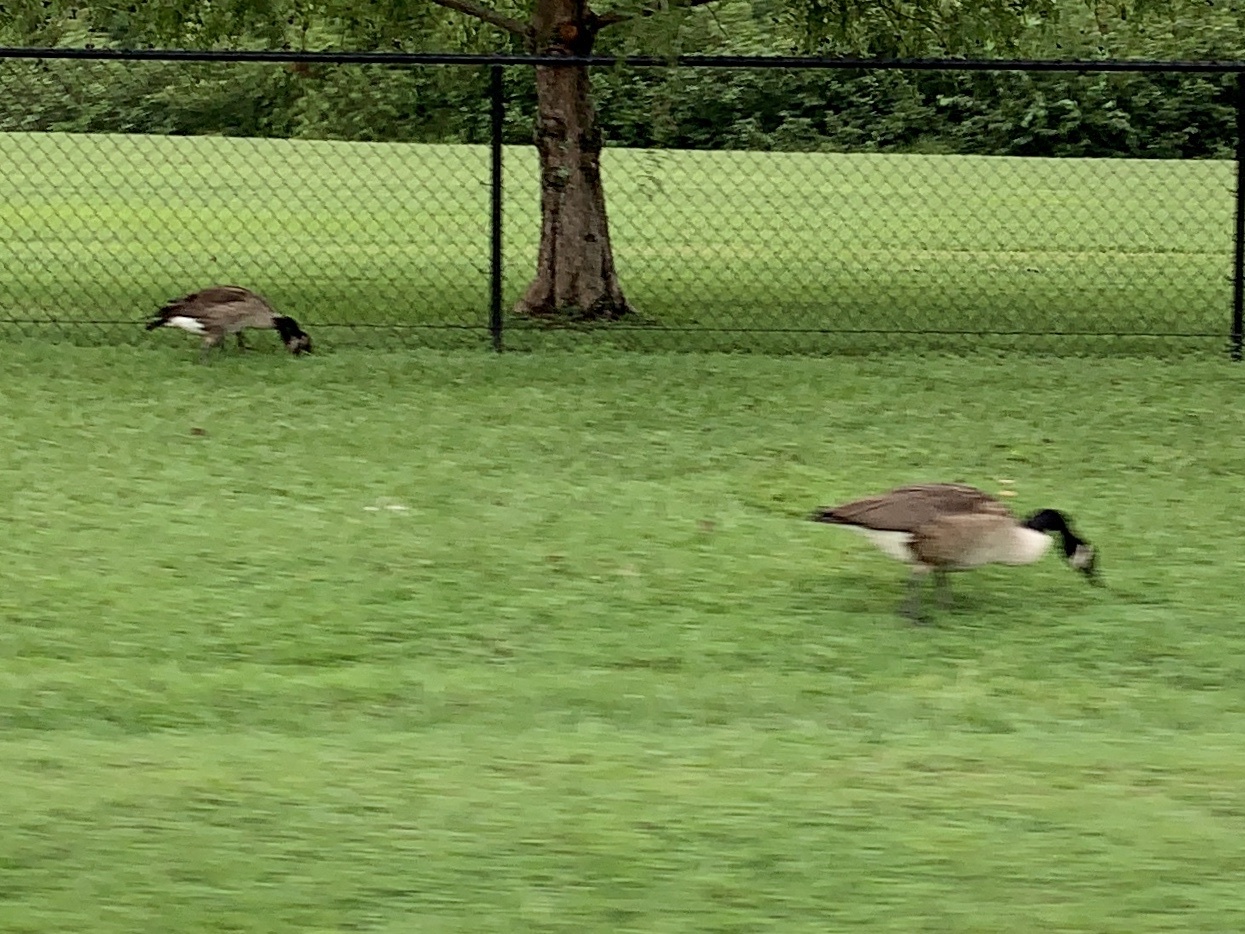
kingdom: Animalia
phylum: Chordata
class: Aves
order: Anseriformes
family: Anatidae
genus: Branta
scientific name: Branta canadensis
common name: Canada goose
